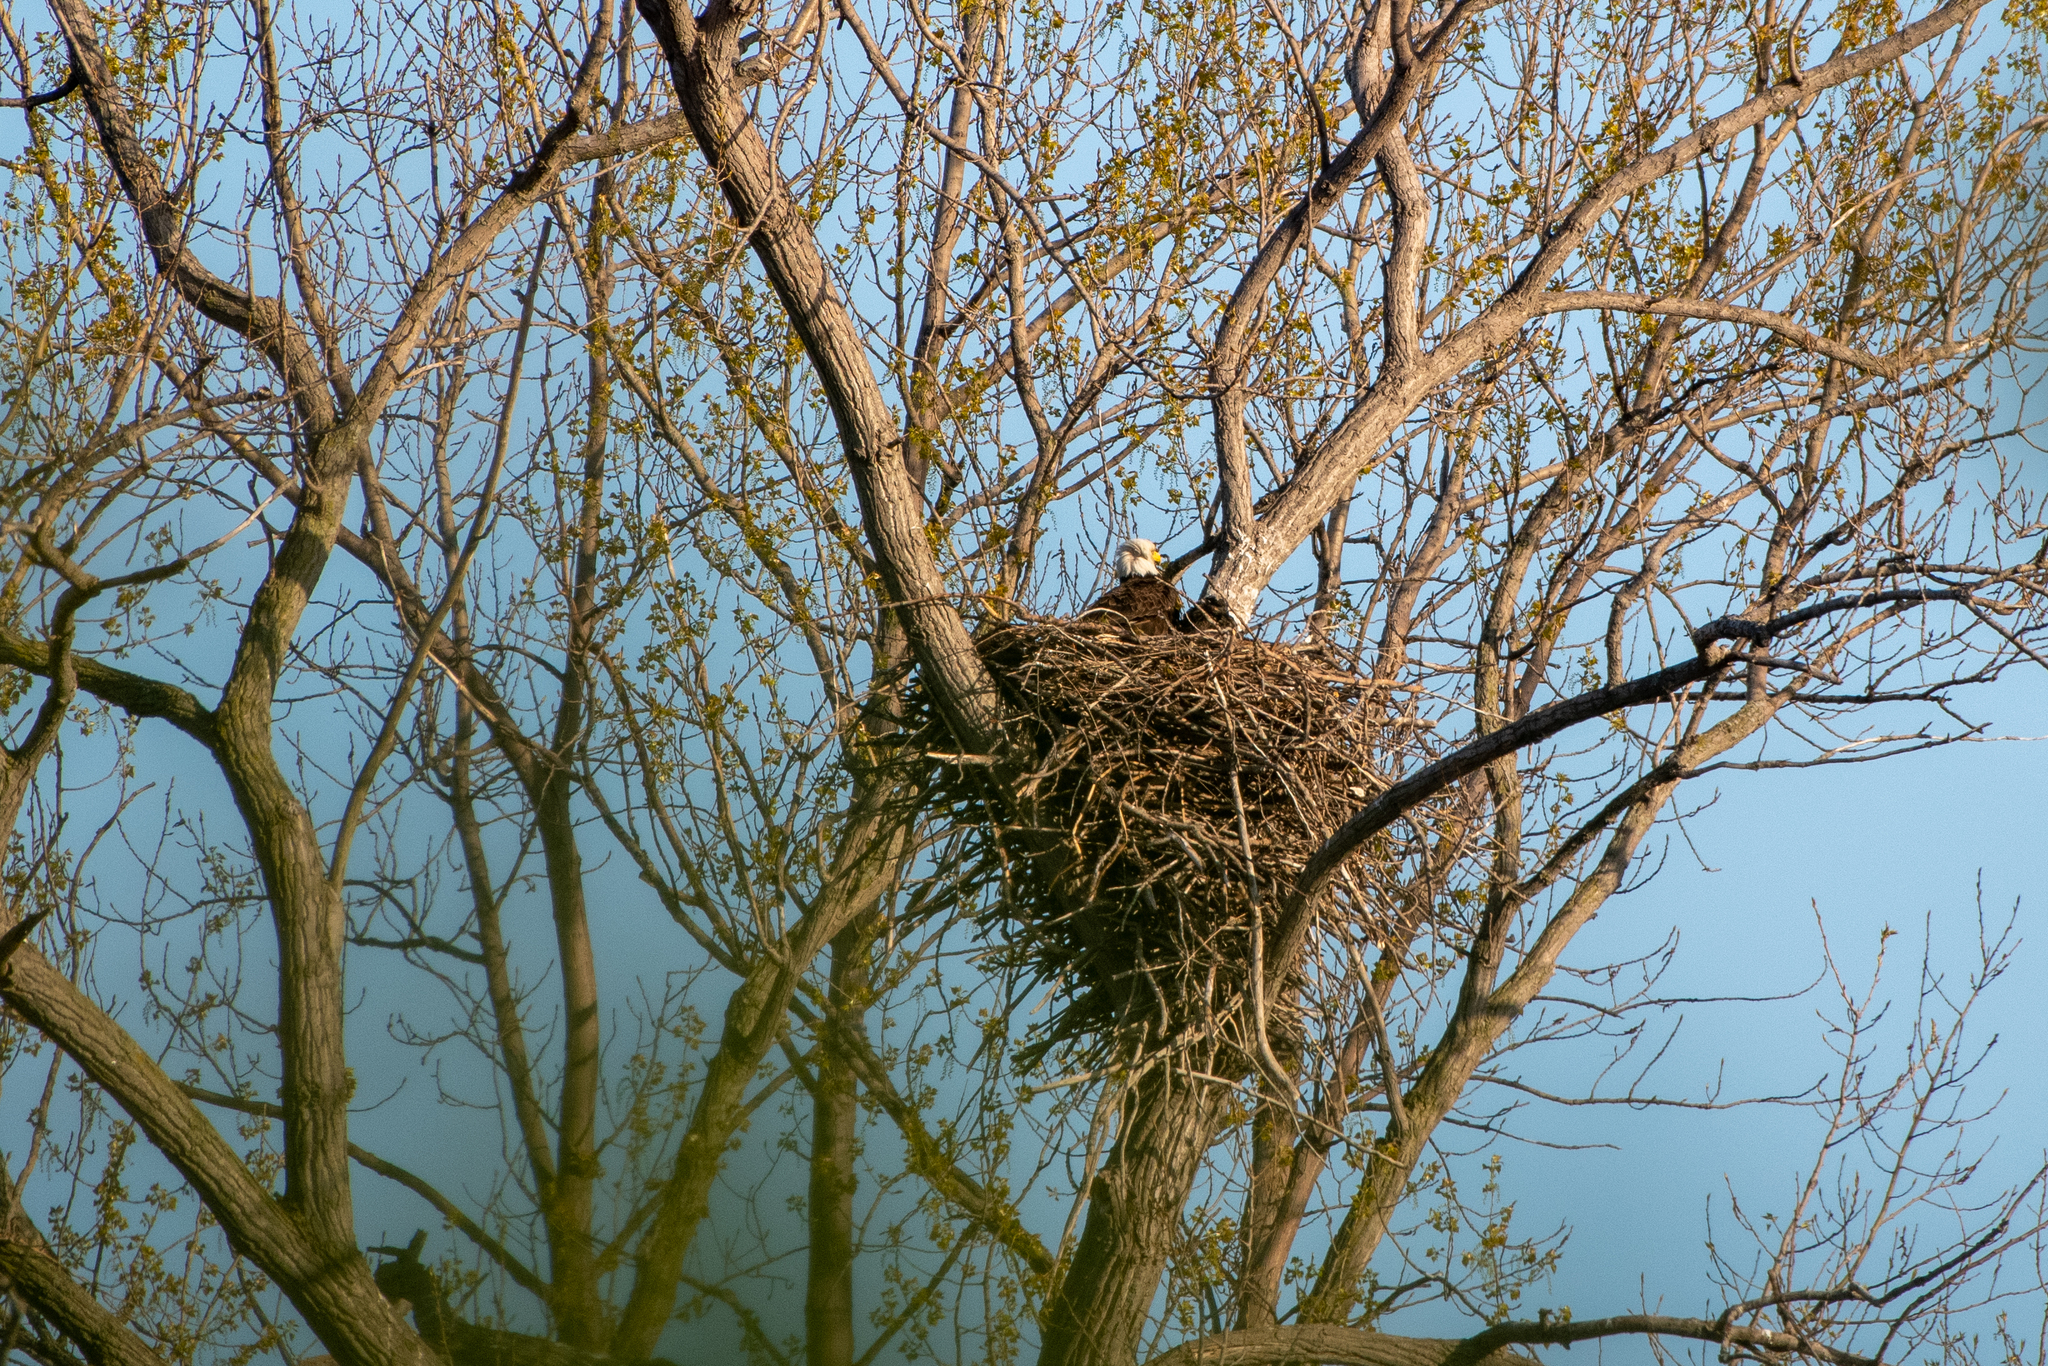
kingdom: Animalia
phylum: Chordata
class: Aves
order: Accipitriformes
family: Accipitridae
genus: Haliaeetus
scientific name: Haliaeetus leucocephalus
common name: Bald eagle
